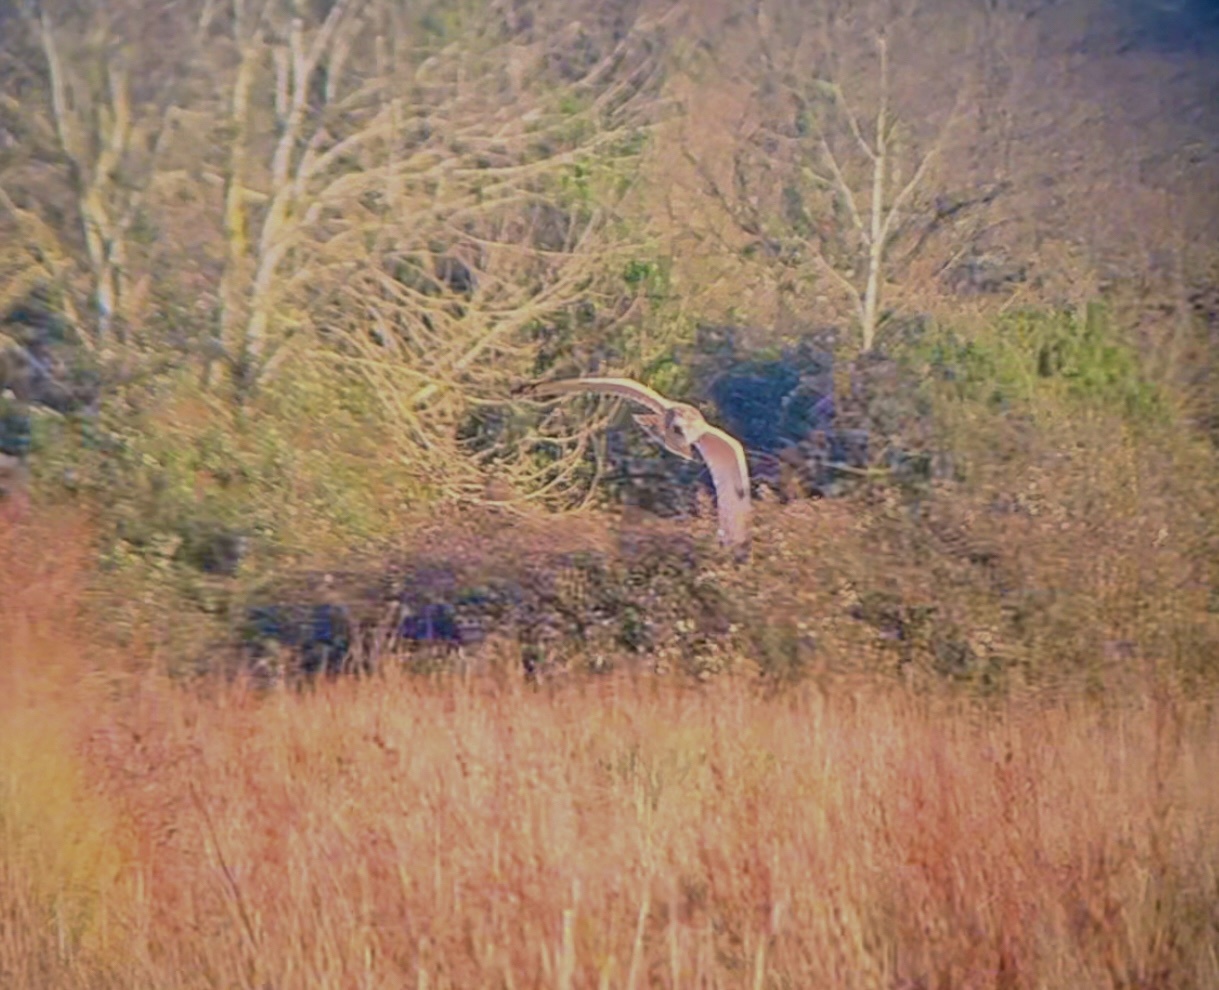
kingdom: Animalia
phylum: Chordata
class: Aves
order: Strigiformes
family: Strigidae
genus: Asio
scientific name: Asio flammeus
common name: Short-eared owl
